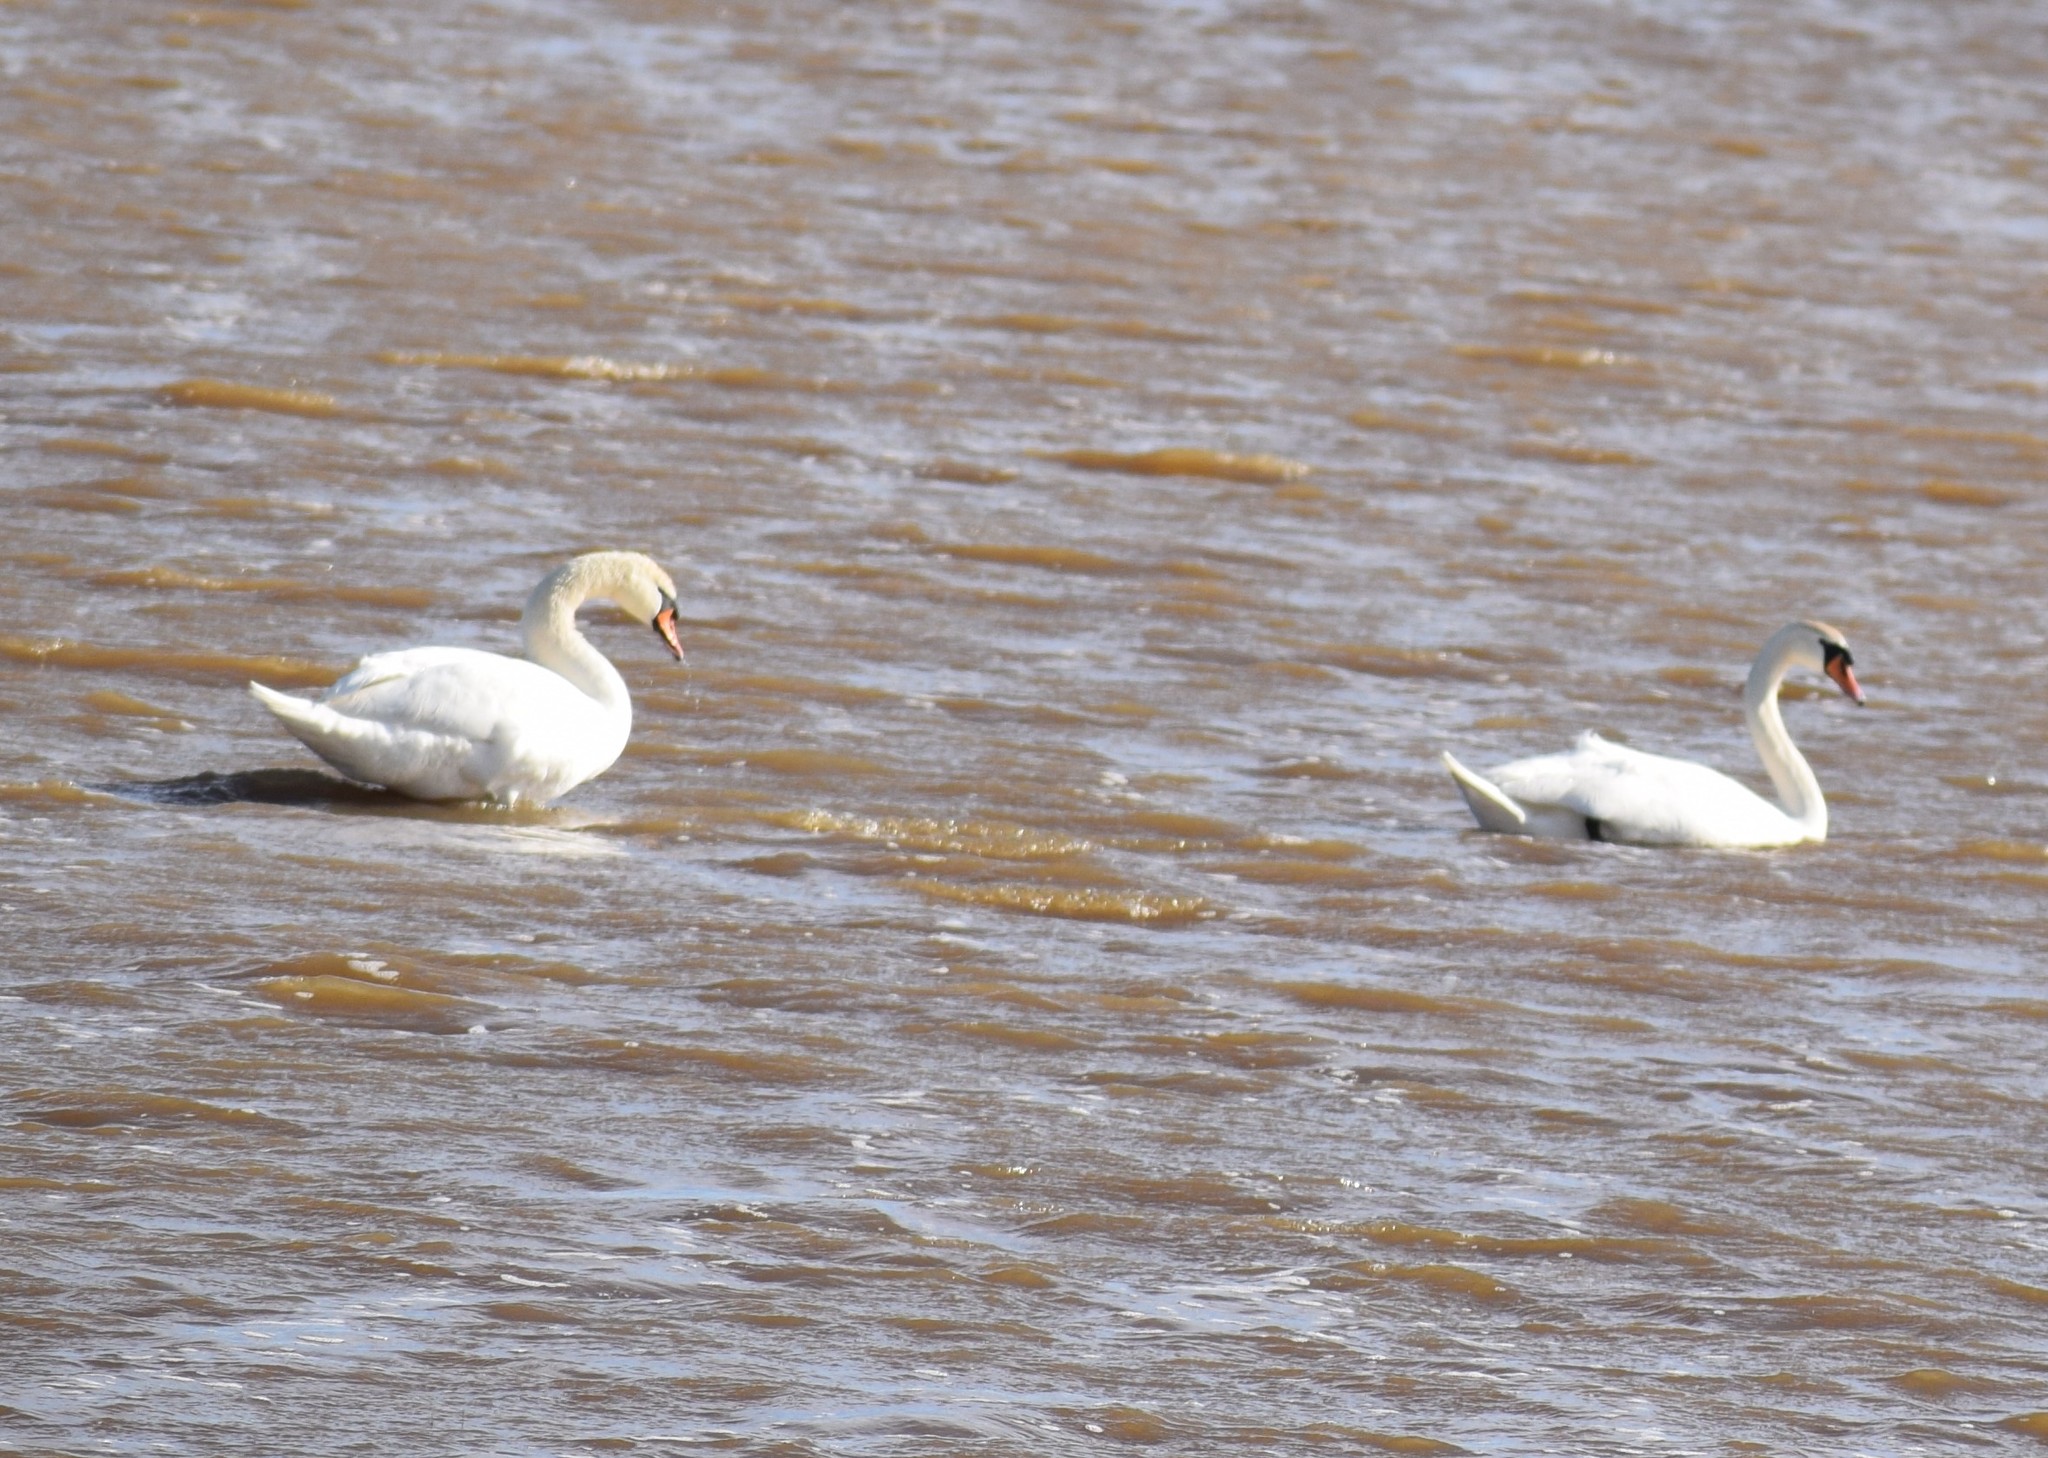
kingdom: Animalia
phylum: Chordata
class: Aves
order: Anseriformes
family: Anatidae
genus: Cygnus
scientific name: Cygnus olor
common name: Mute swan
